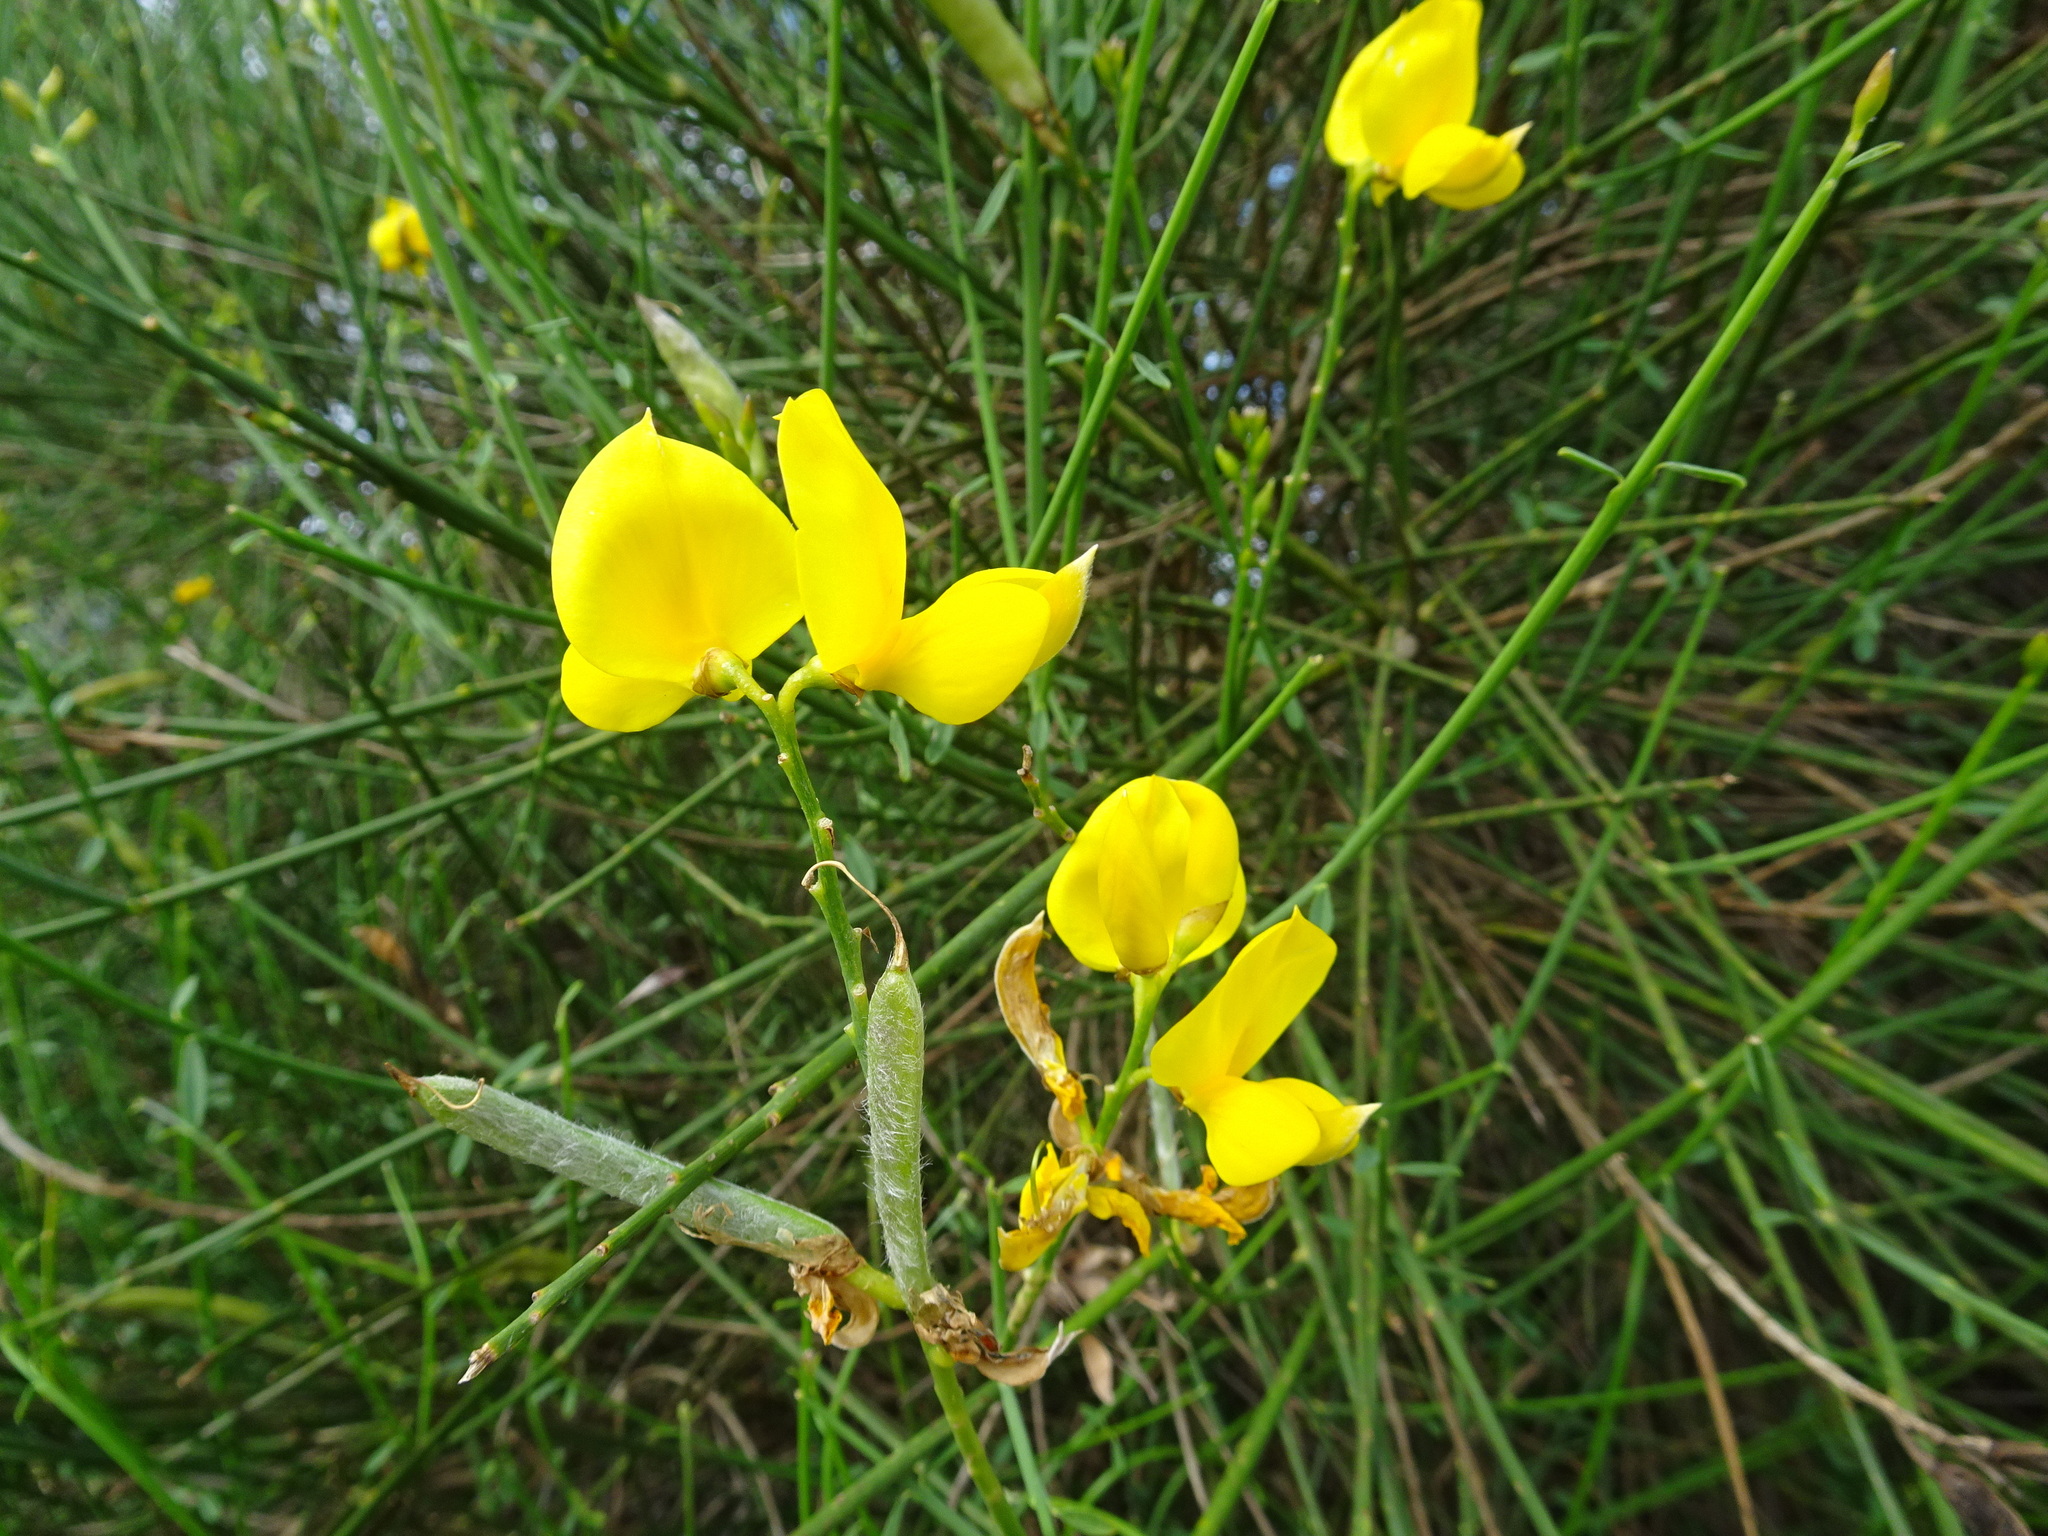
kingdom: Plantae
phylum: Tracheophyta
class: Magnoliopsida
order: Fabales
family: Fabaceae
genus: Spartium
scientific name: Spartium junceum
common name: Spanish broom
